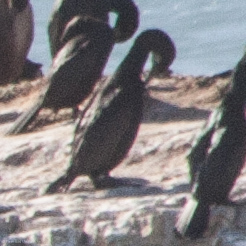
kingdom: Animalia
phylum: Chordata
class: Aves
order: Suliformes
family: Phalacrocoracidae
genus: Urile
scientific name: Urile penicillatus
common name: Brandt's cormorant
